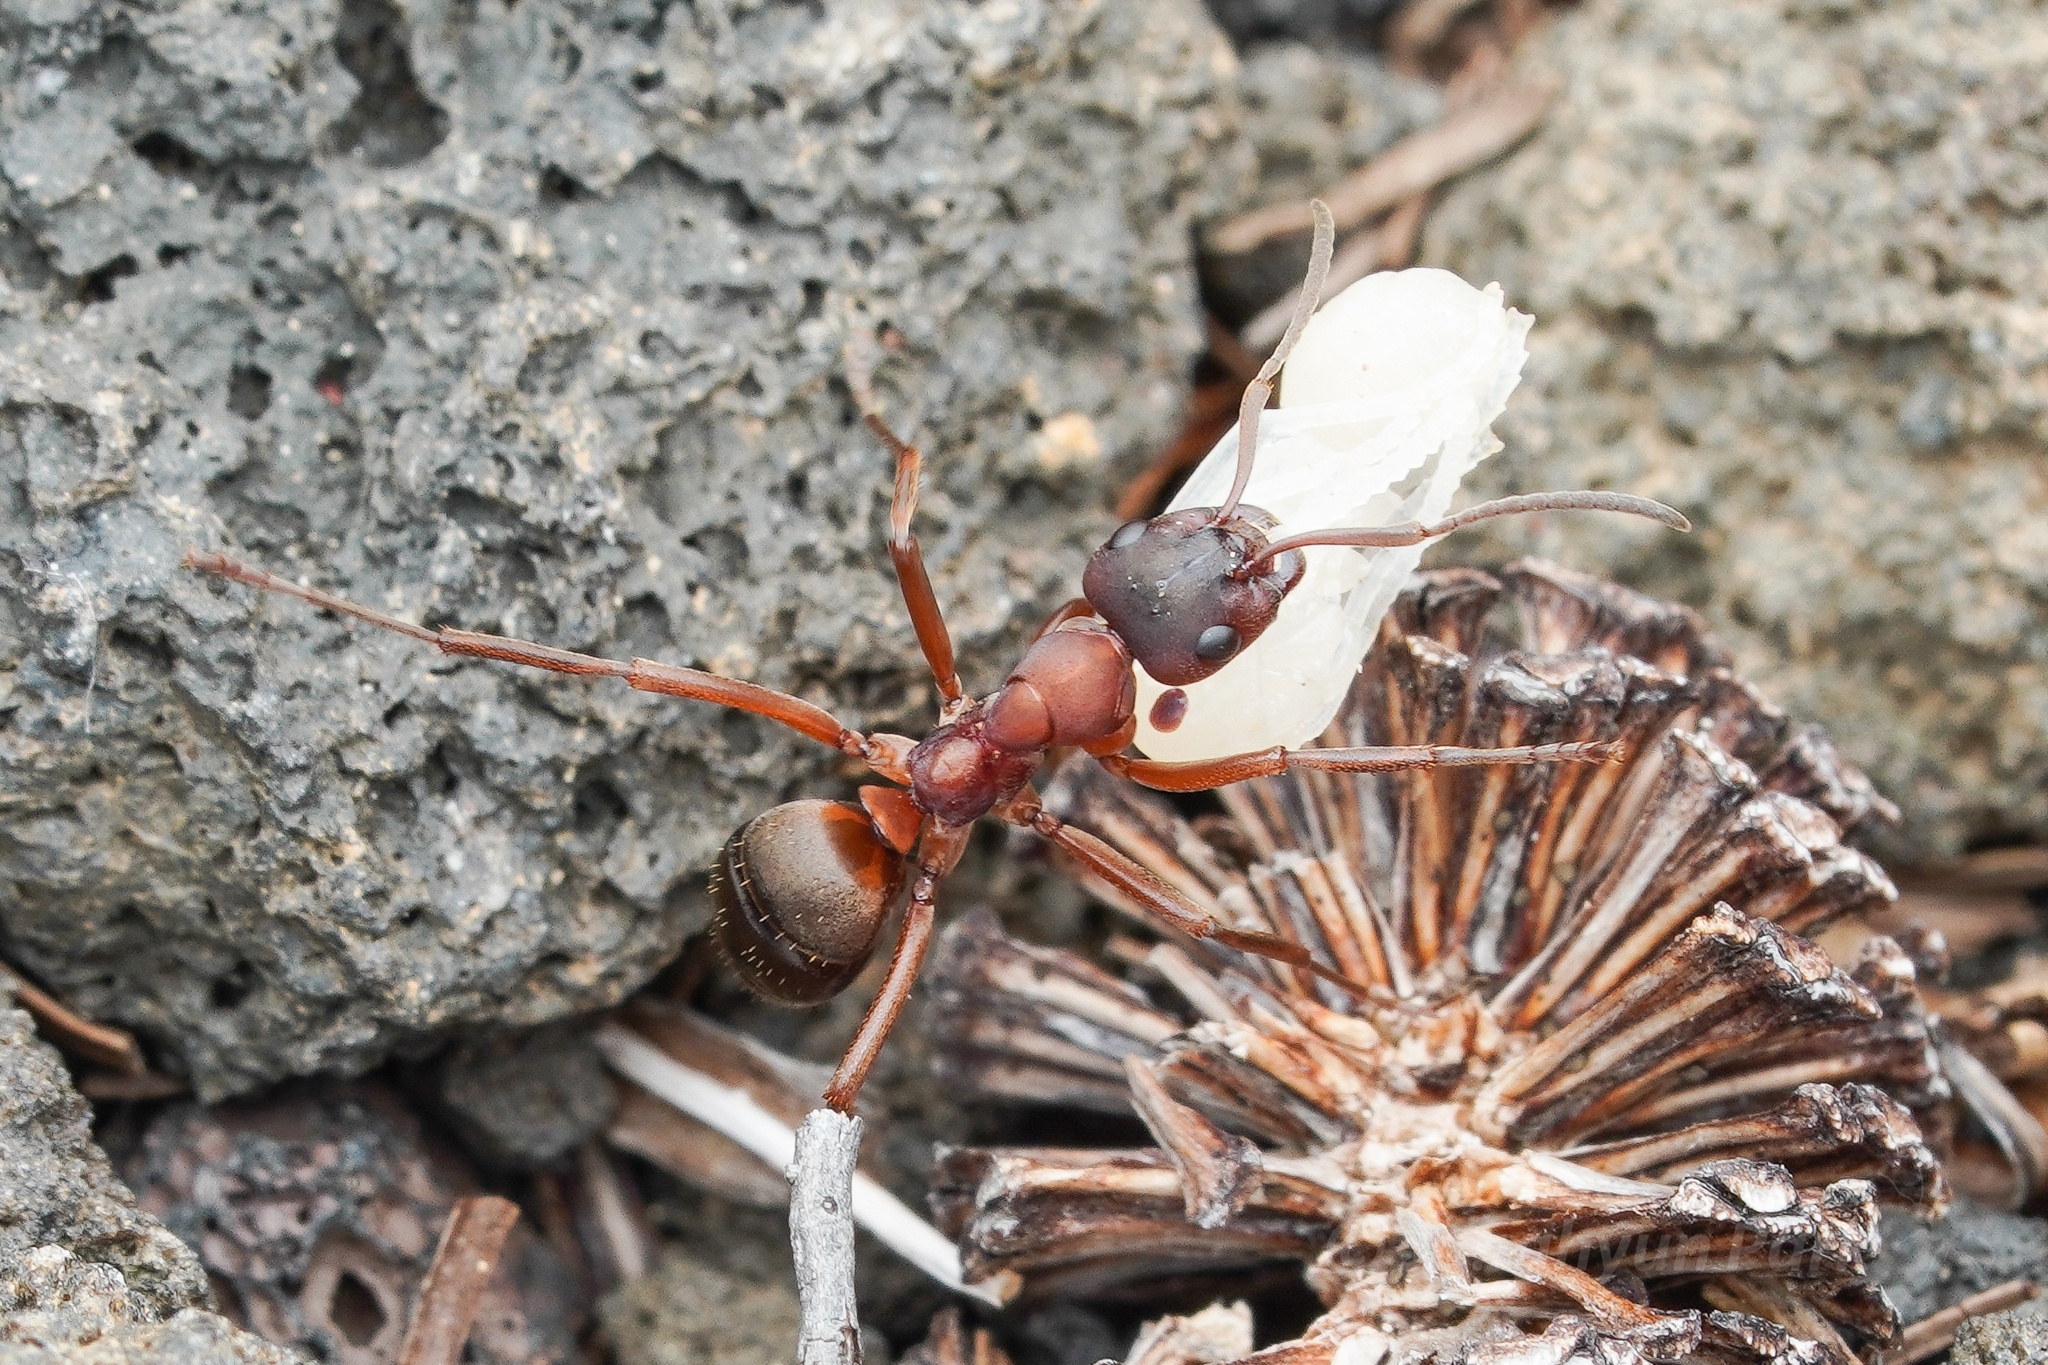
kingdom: Animalia
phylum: Arthropoda
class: Insecta
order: Hymenoptera
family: Formicidae
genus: Formica
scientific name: Formica sanguinea
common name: Blood-red ant
